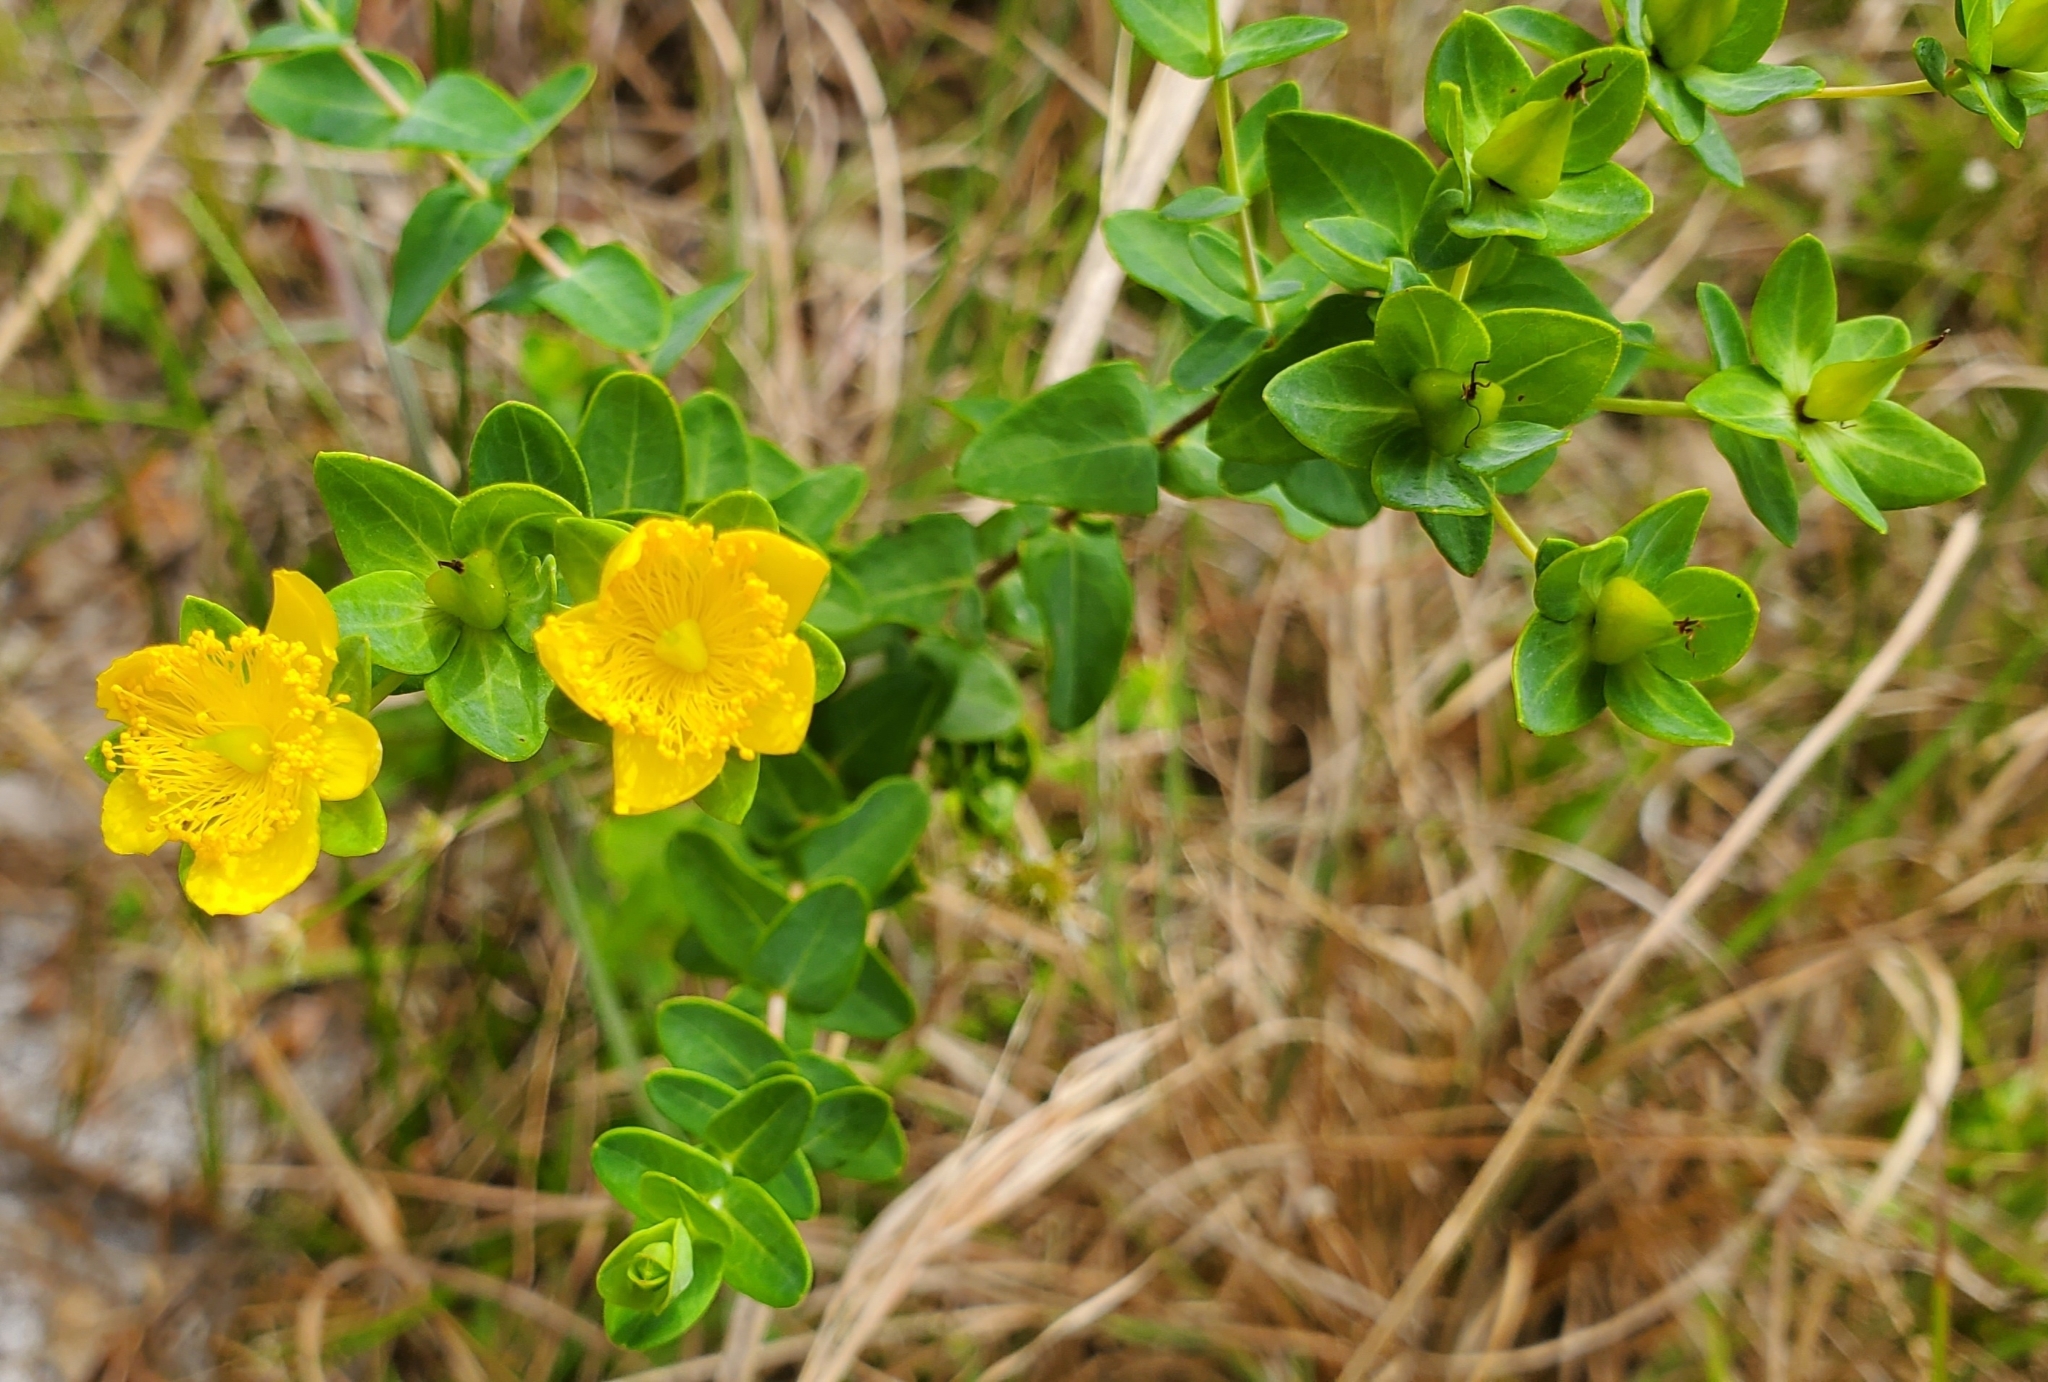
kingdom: Plantae
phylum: Tracheophyta
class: Magnoliopsida
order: Malpighiales
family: Hypericaceae
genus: Hypericum
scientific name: Hypericum myrtifolium
